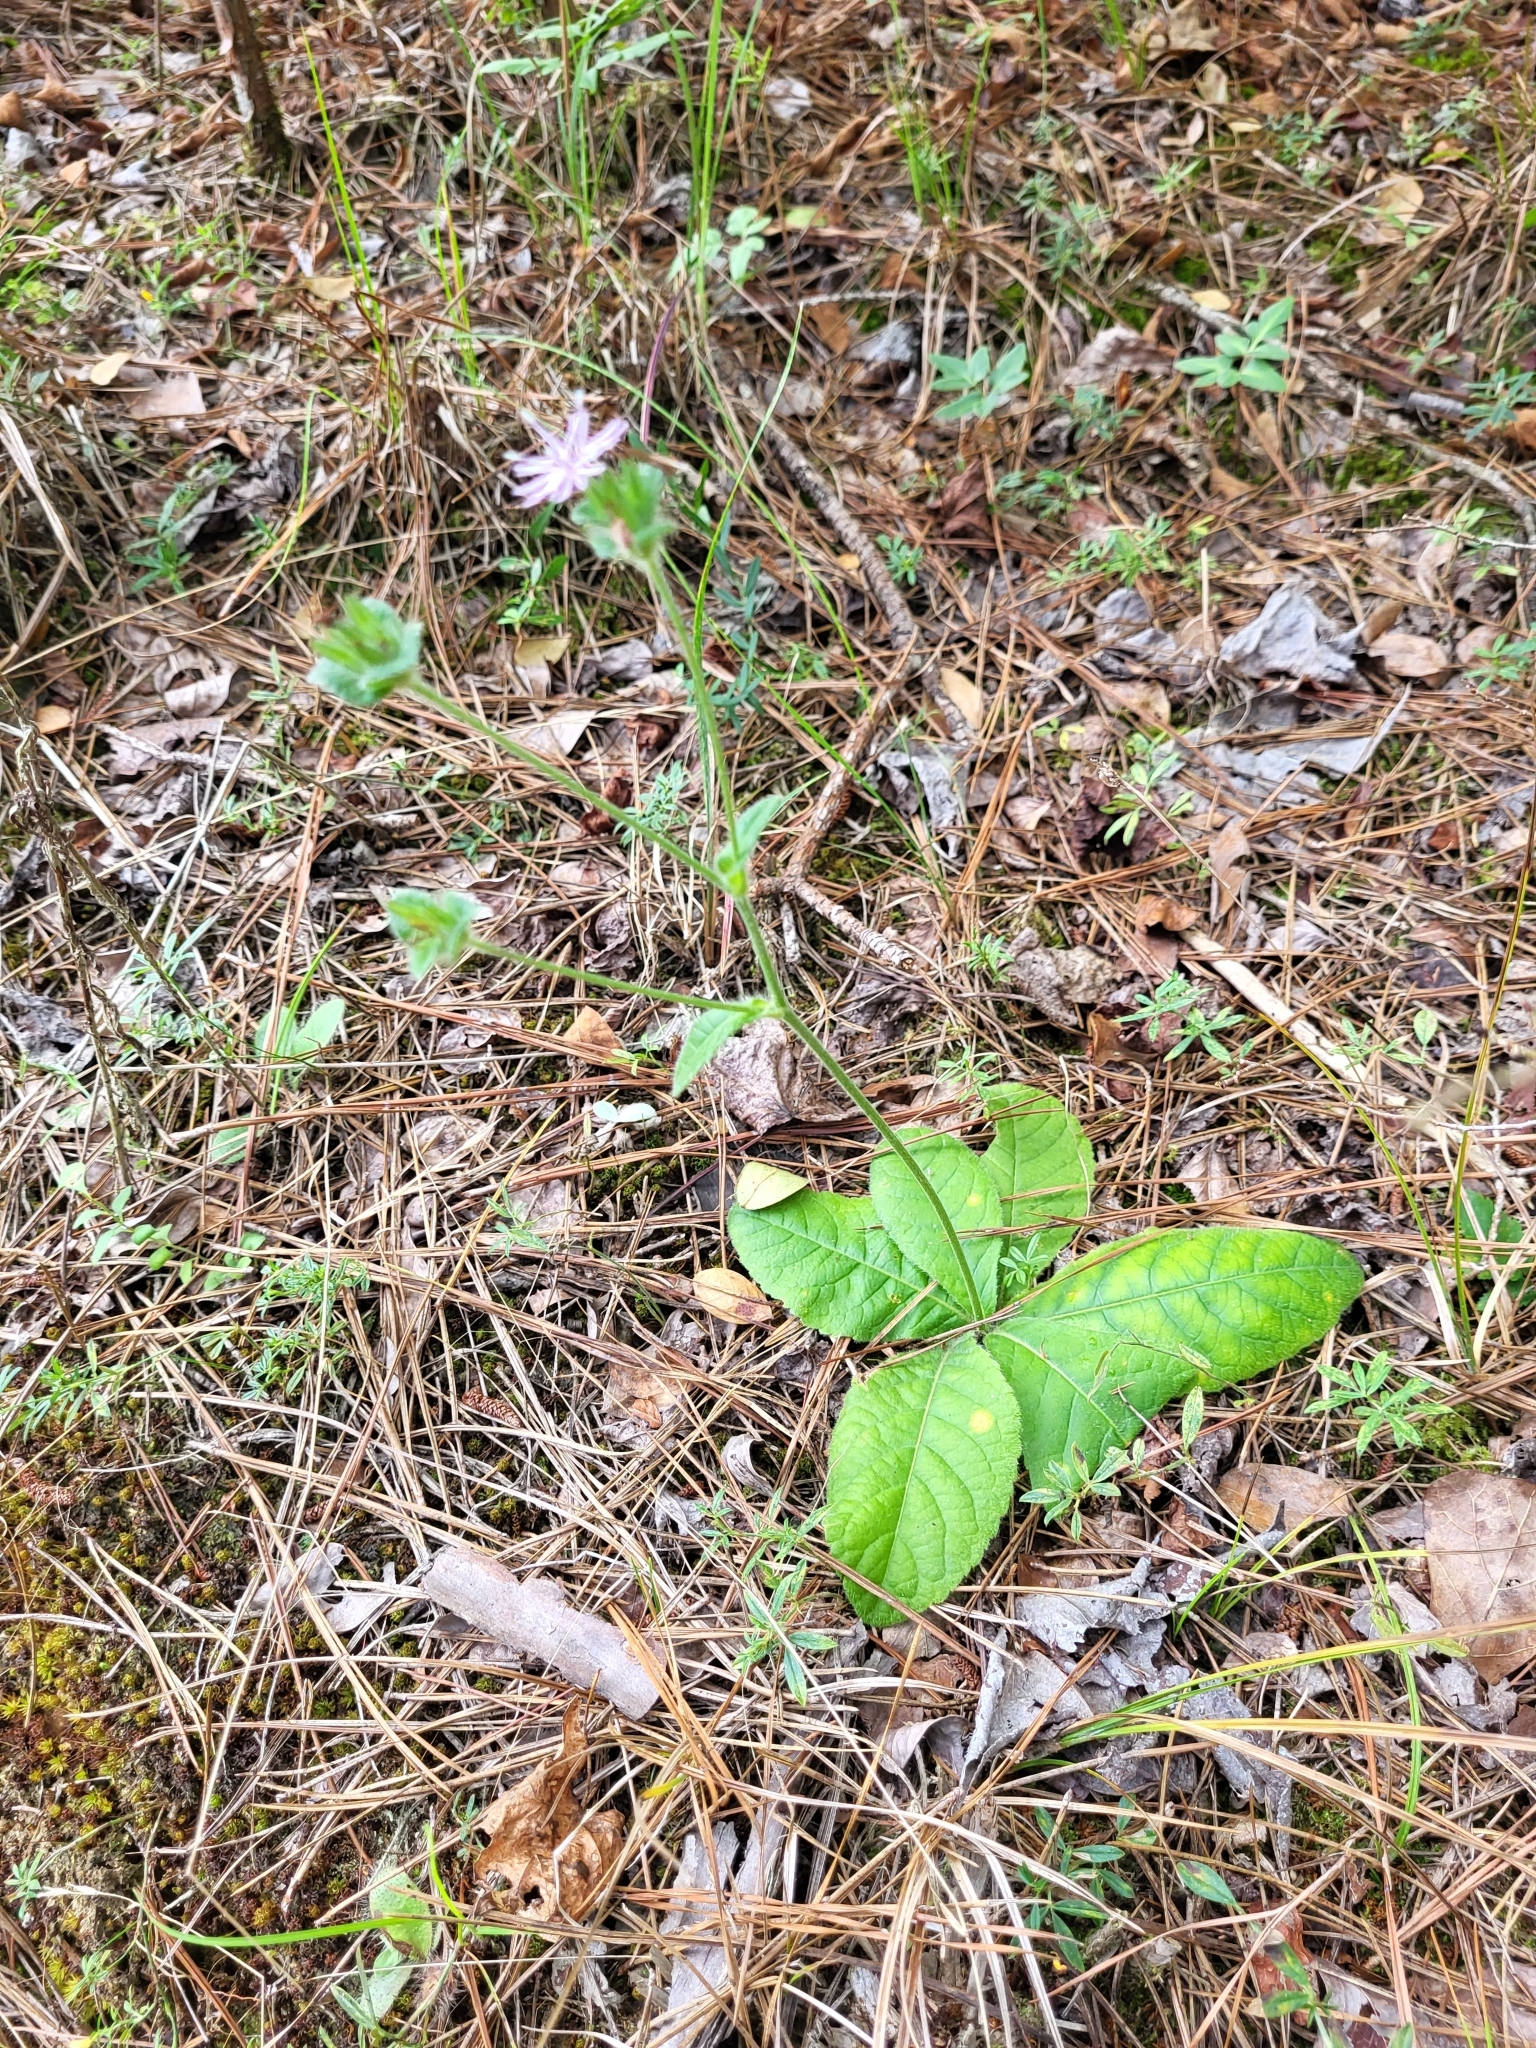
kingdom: Plantae
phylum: Tracheophyta
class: Magnoliopsida
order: Asterales
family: Asteraceae
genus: Elephantopus
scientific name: Elephantopus tomentosus
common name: Tobacco-weed
